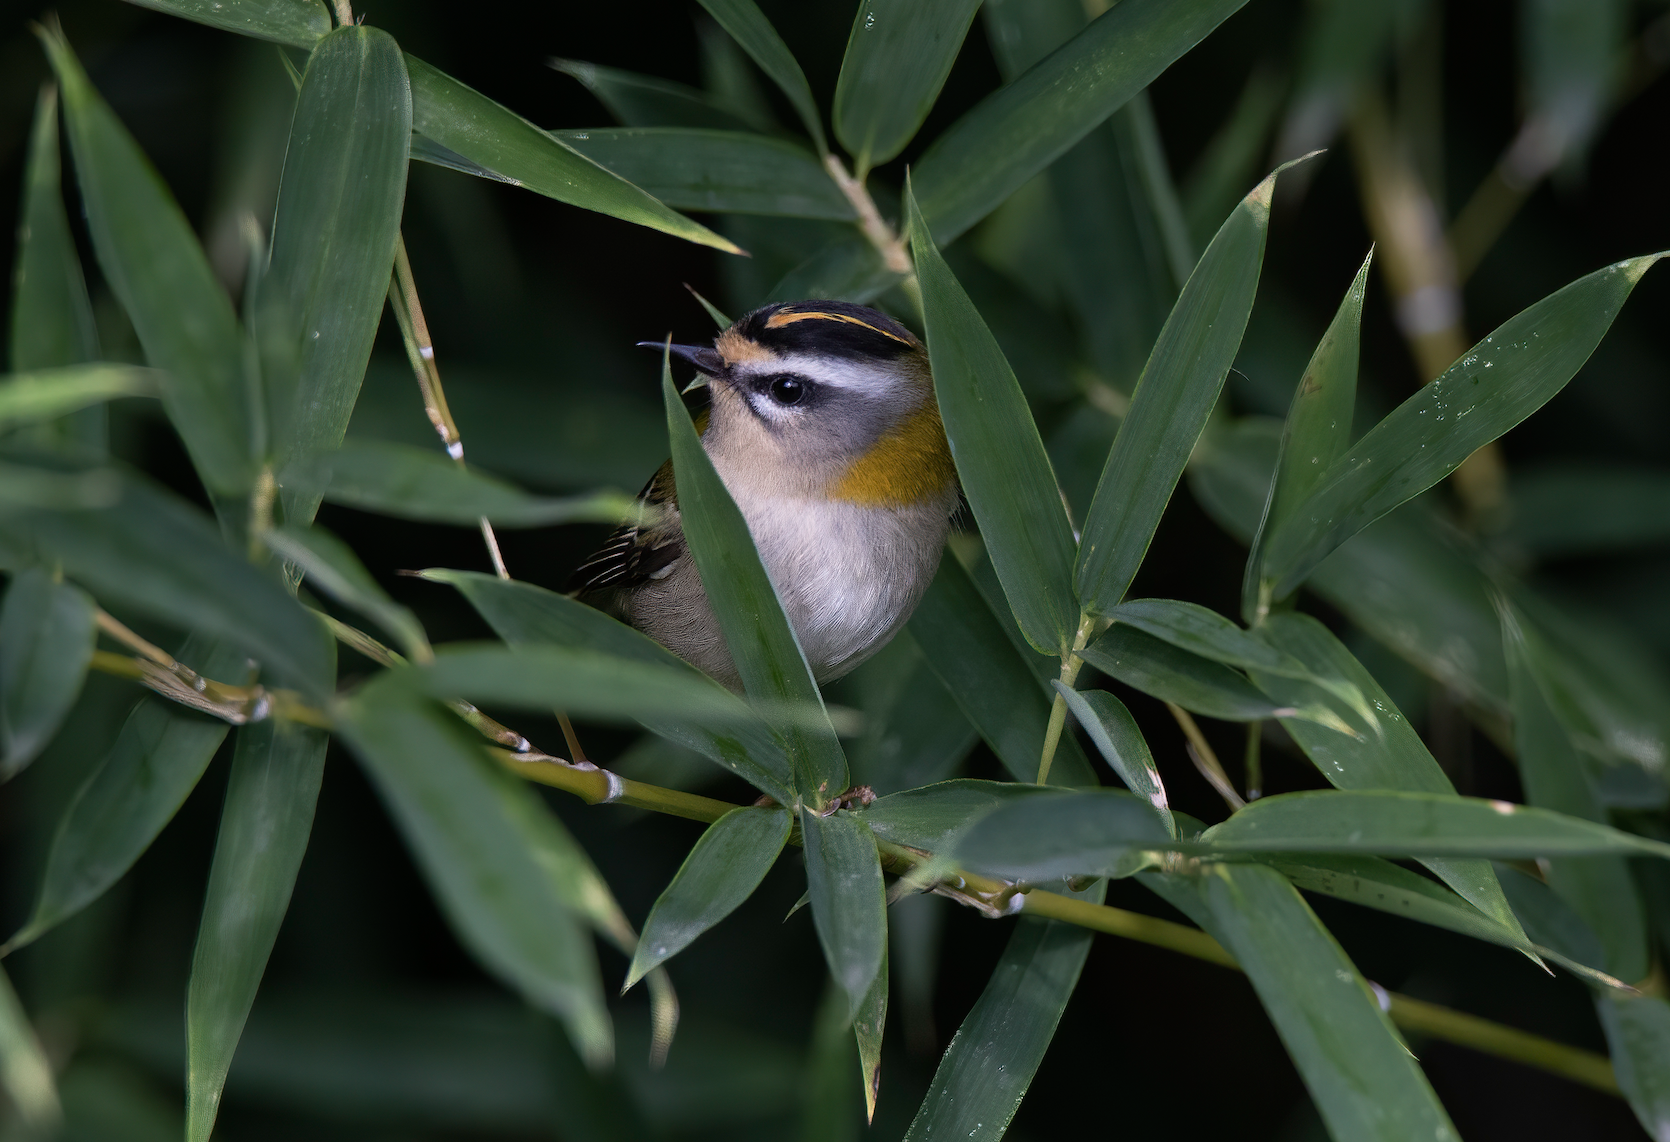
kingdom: Animalia
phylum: Chordata
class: Aves
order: Passeriformes
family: Regulidae
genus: Regulus
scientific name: Regulus ignicapilla
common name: Firecrest
